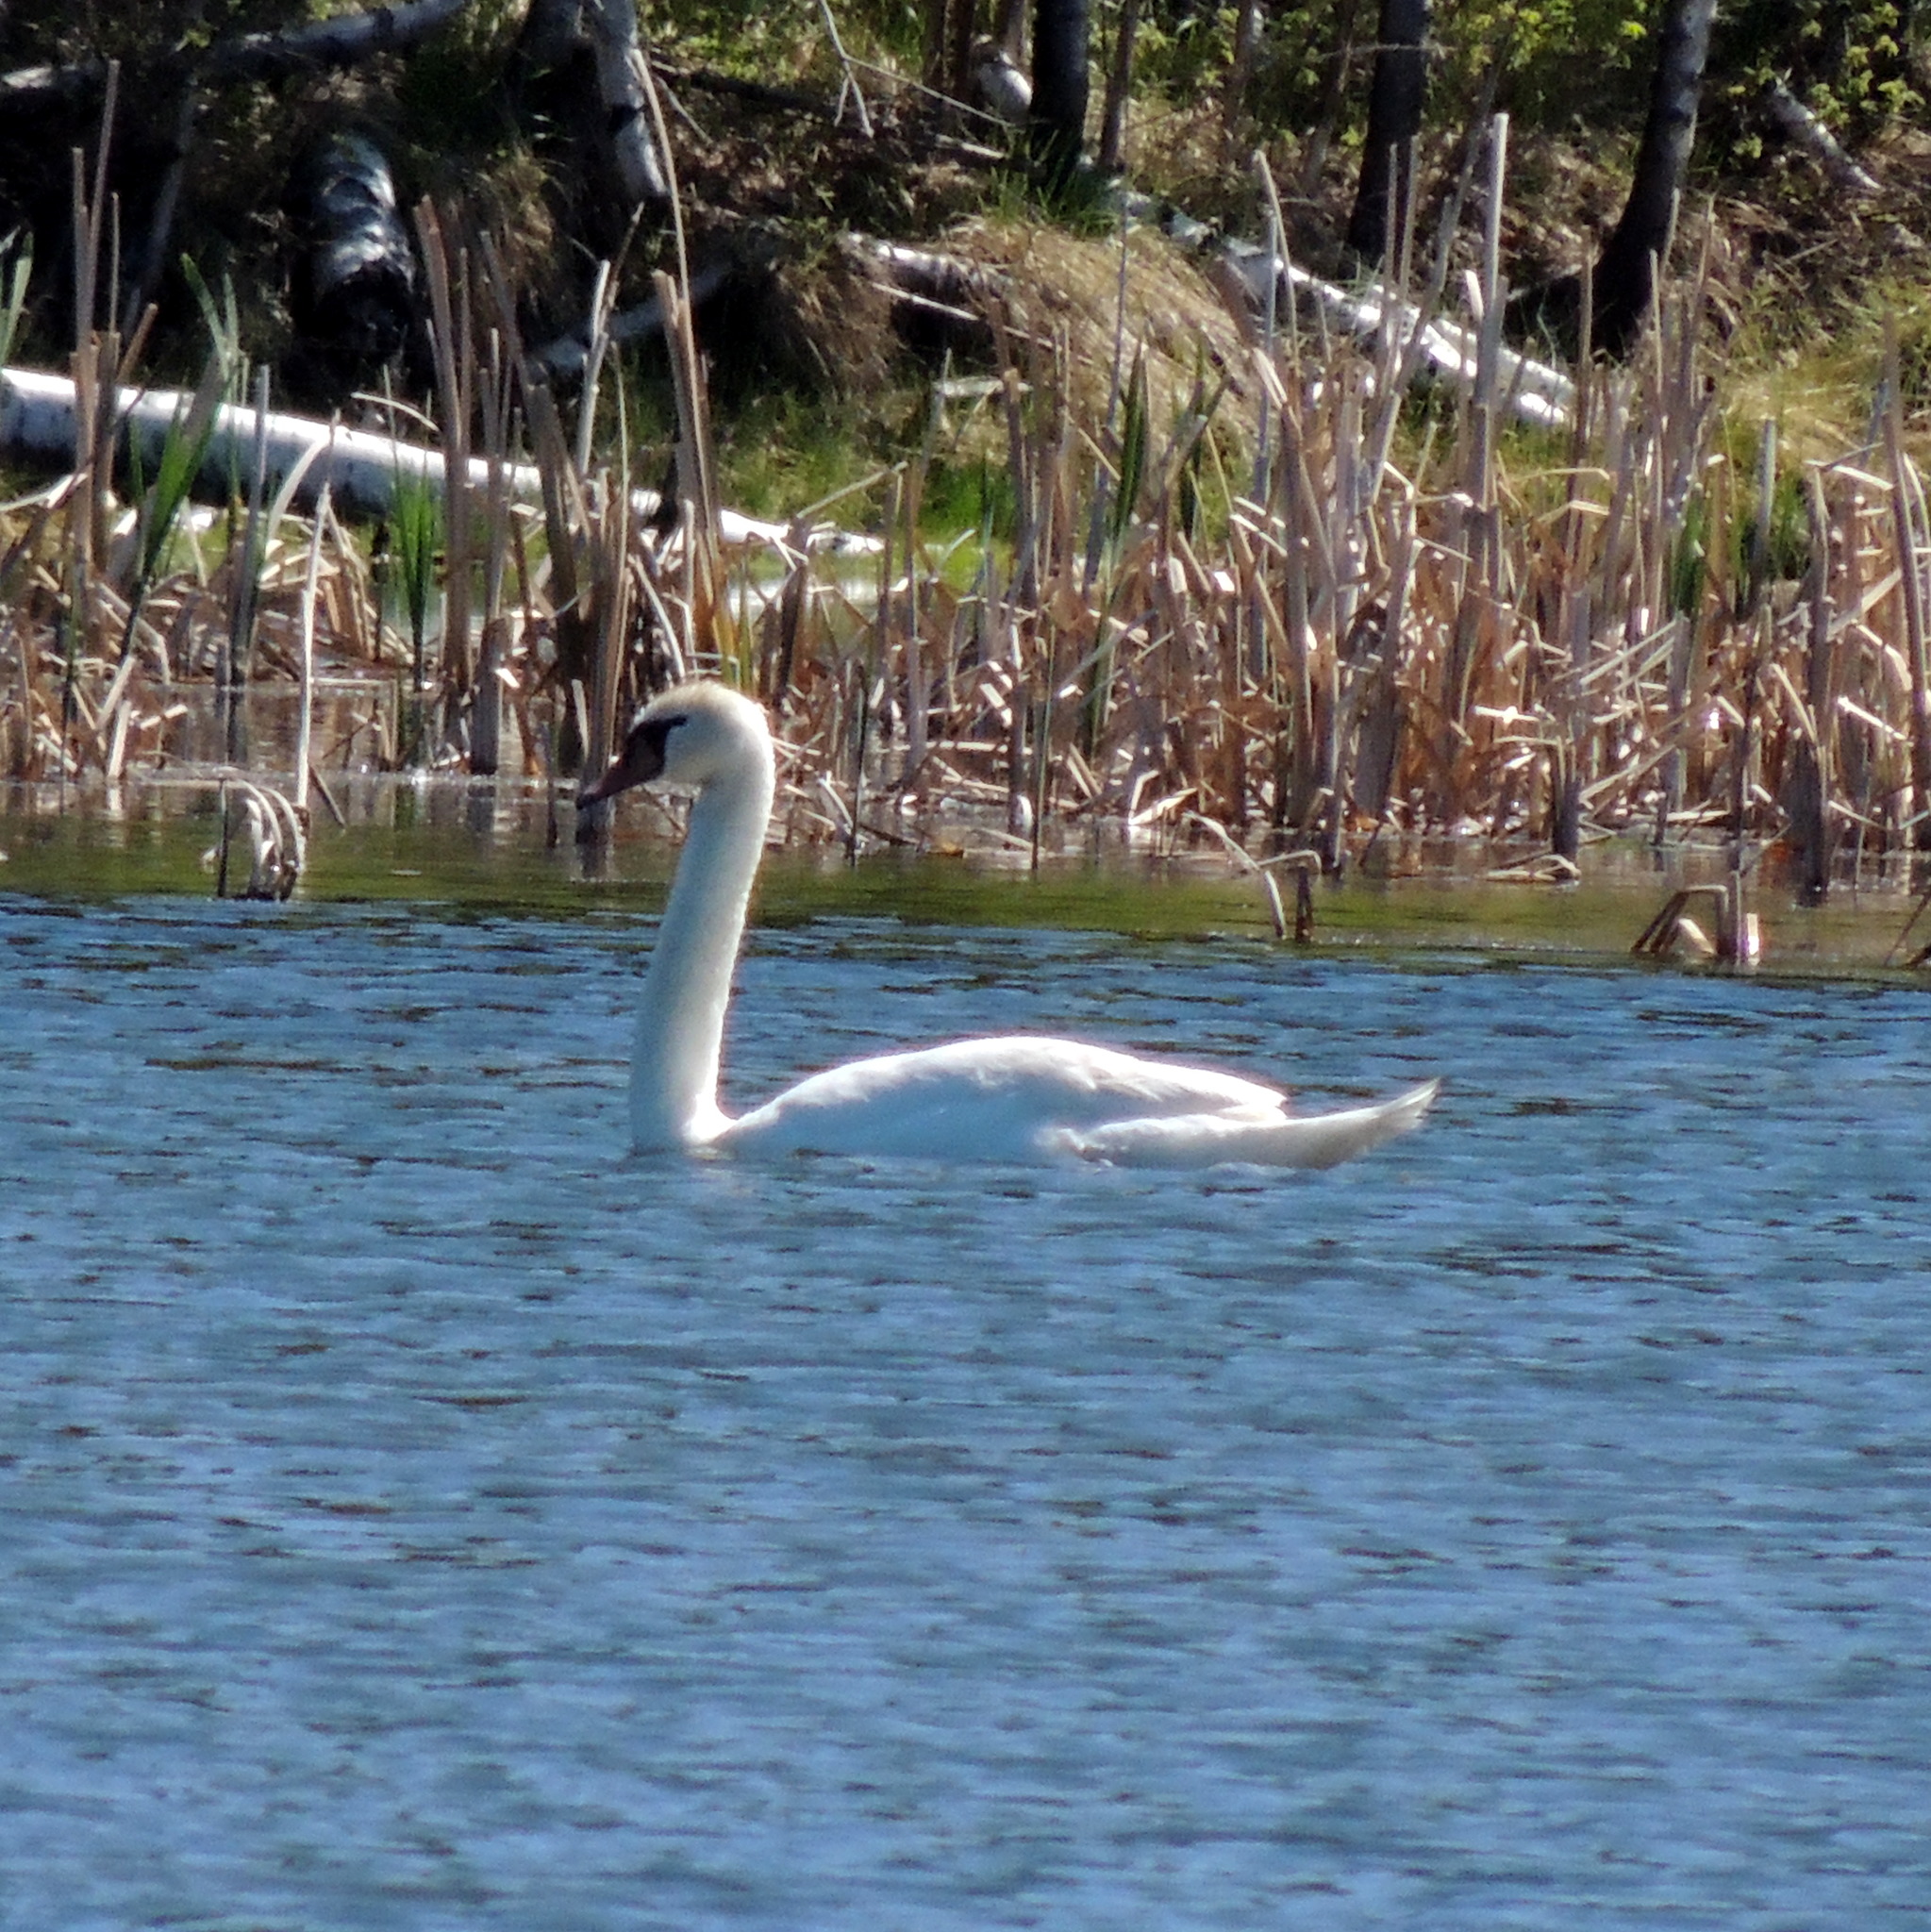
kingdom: Animalia
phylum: Chordata
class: Aves
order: Anseriformes
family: Anatidae
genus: Cygnus
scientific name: Cygnus olor
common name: Mute swan
